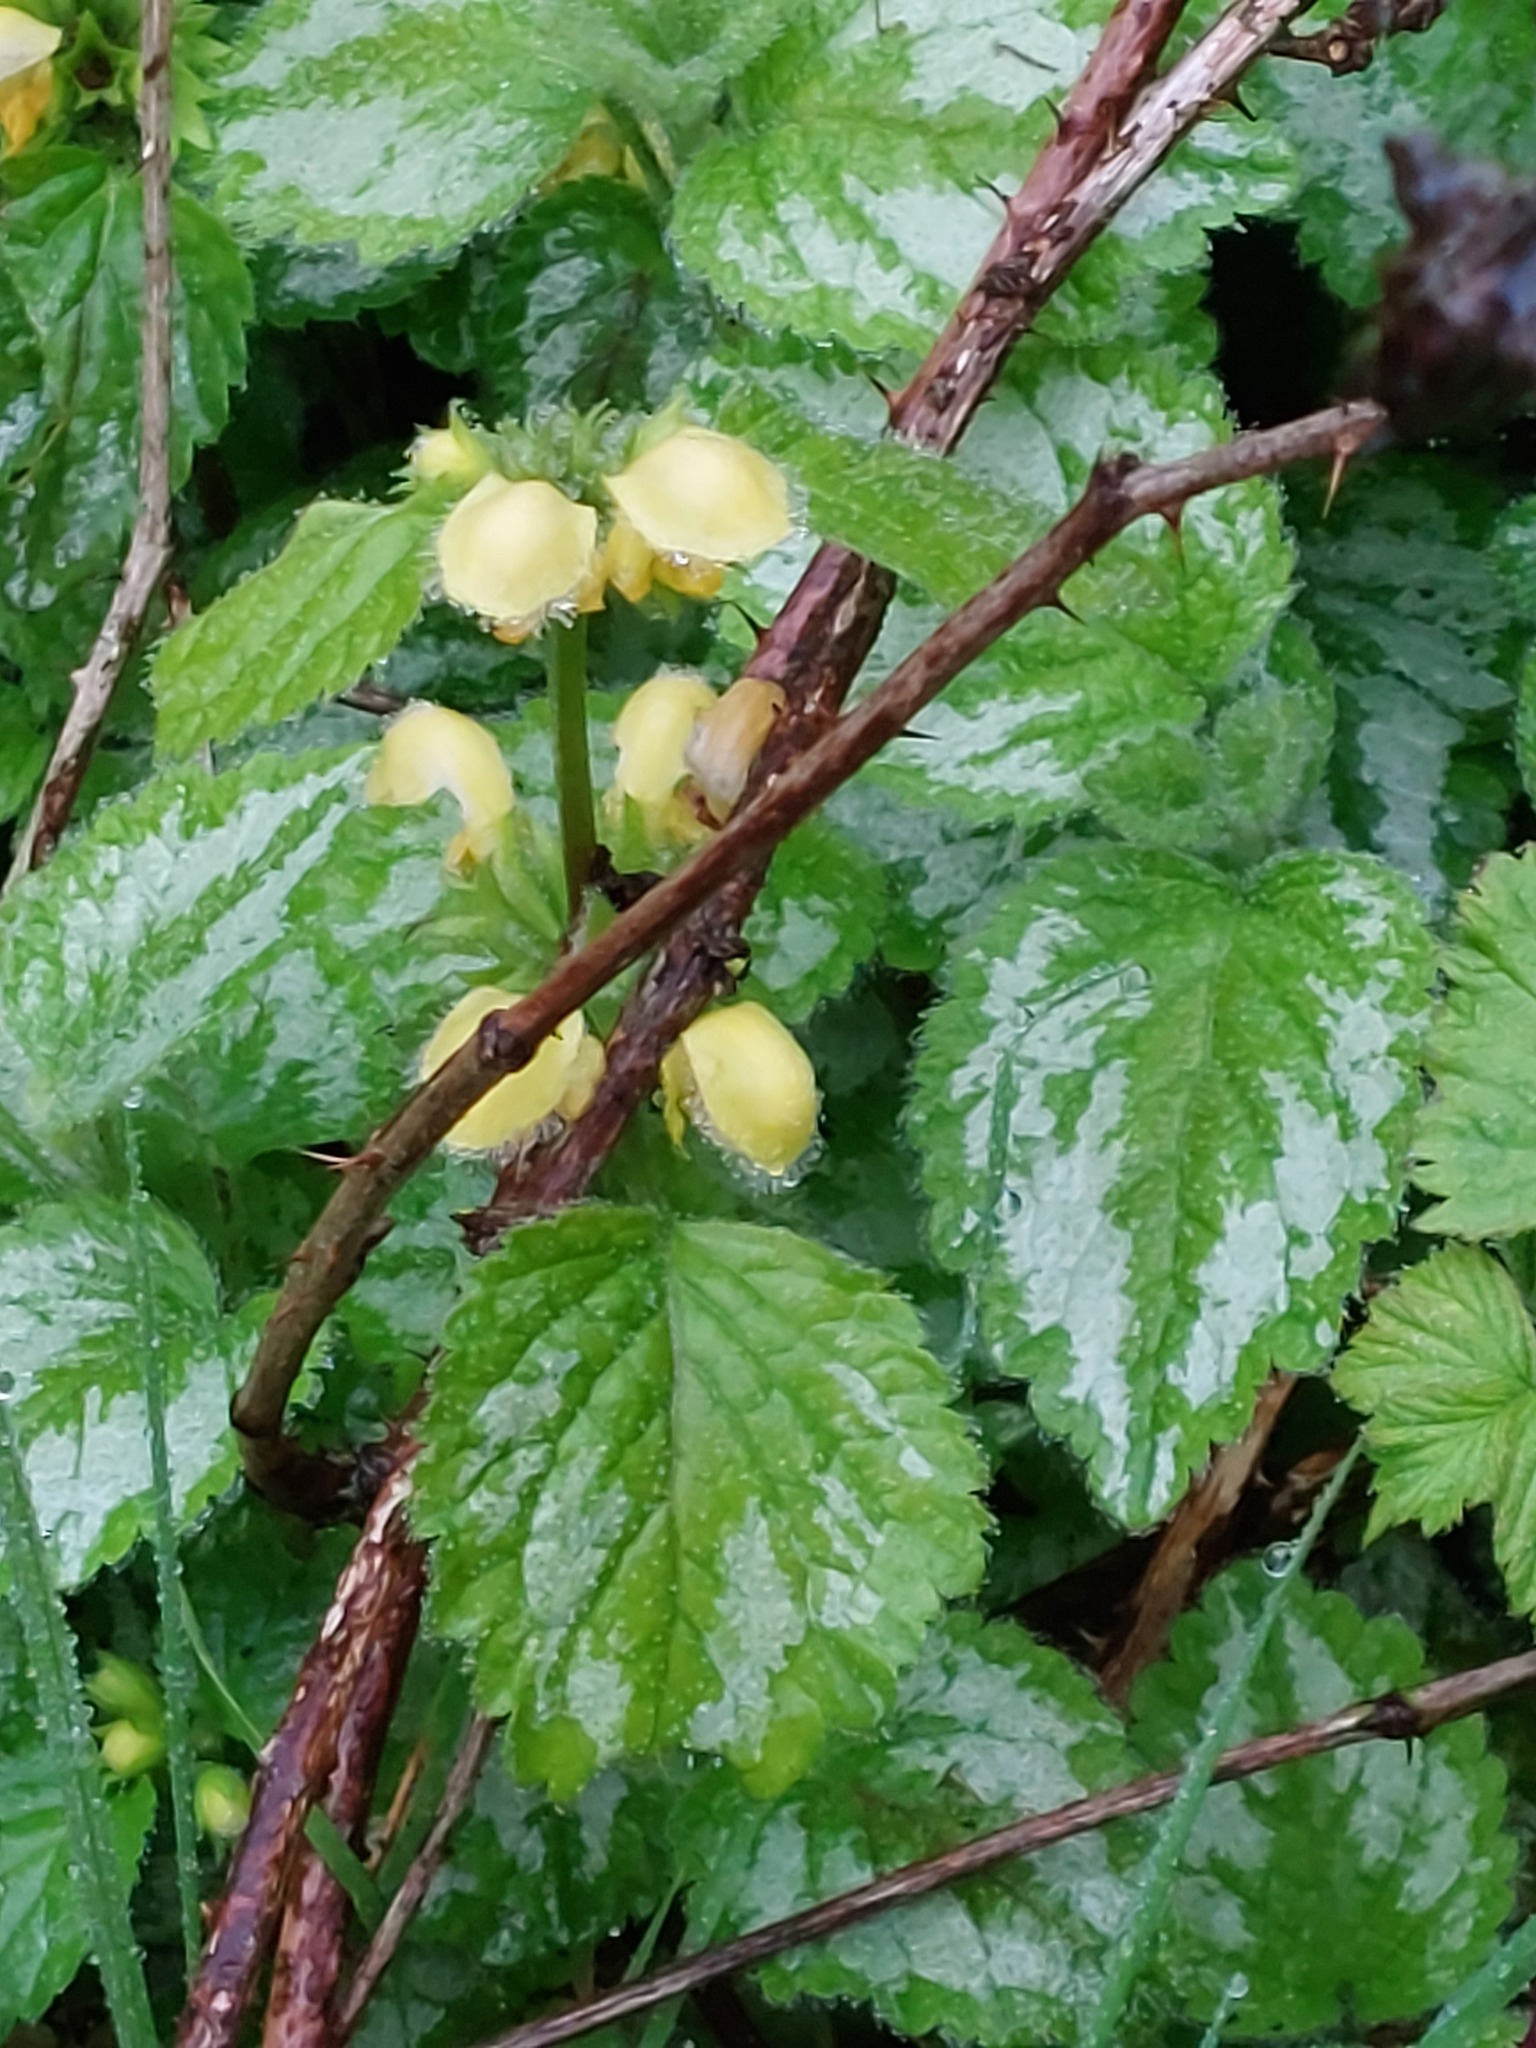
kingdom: Plantae
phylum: Tracheophyta
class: Magnoliopsida
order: Lamiales
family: Lamiaceae
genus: Lamium
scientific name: Lamium galeobdolon
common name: Yellow archangel
